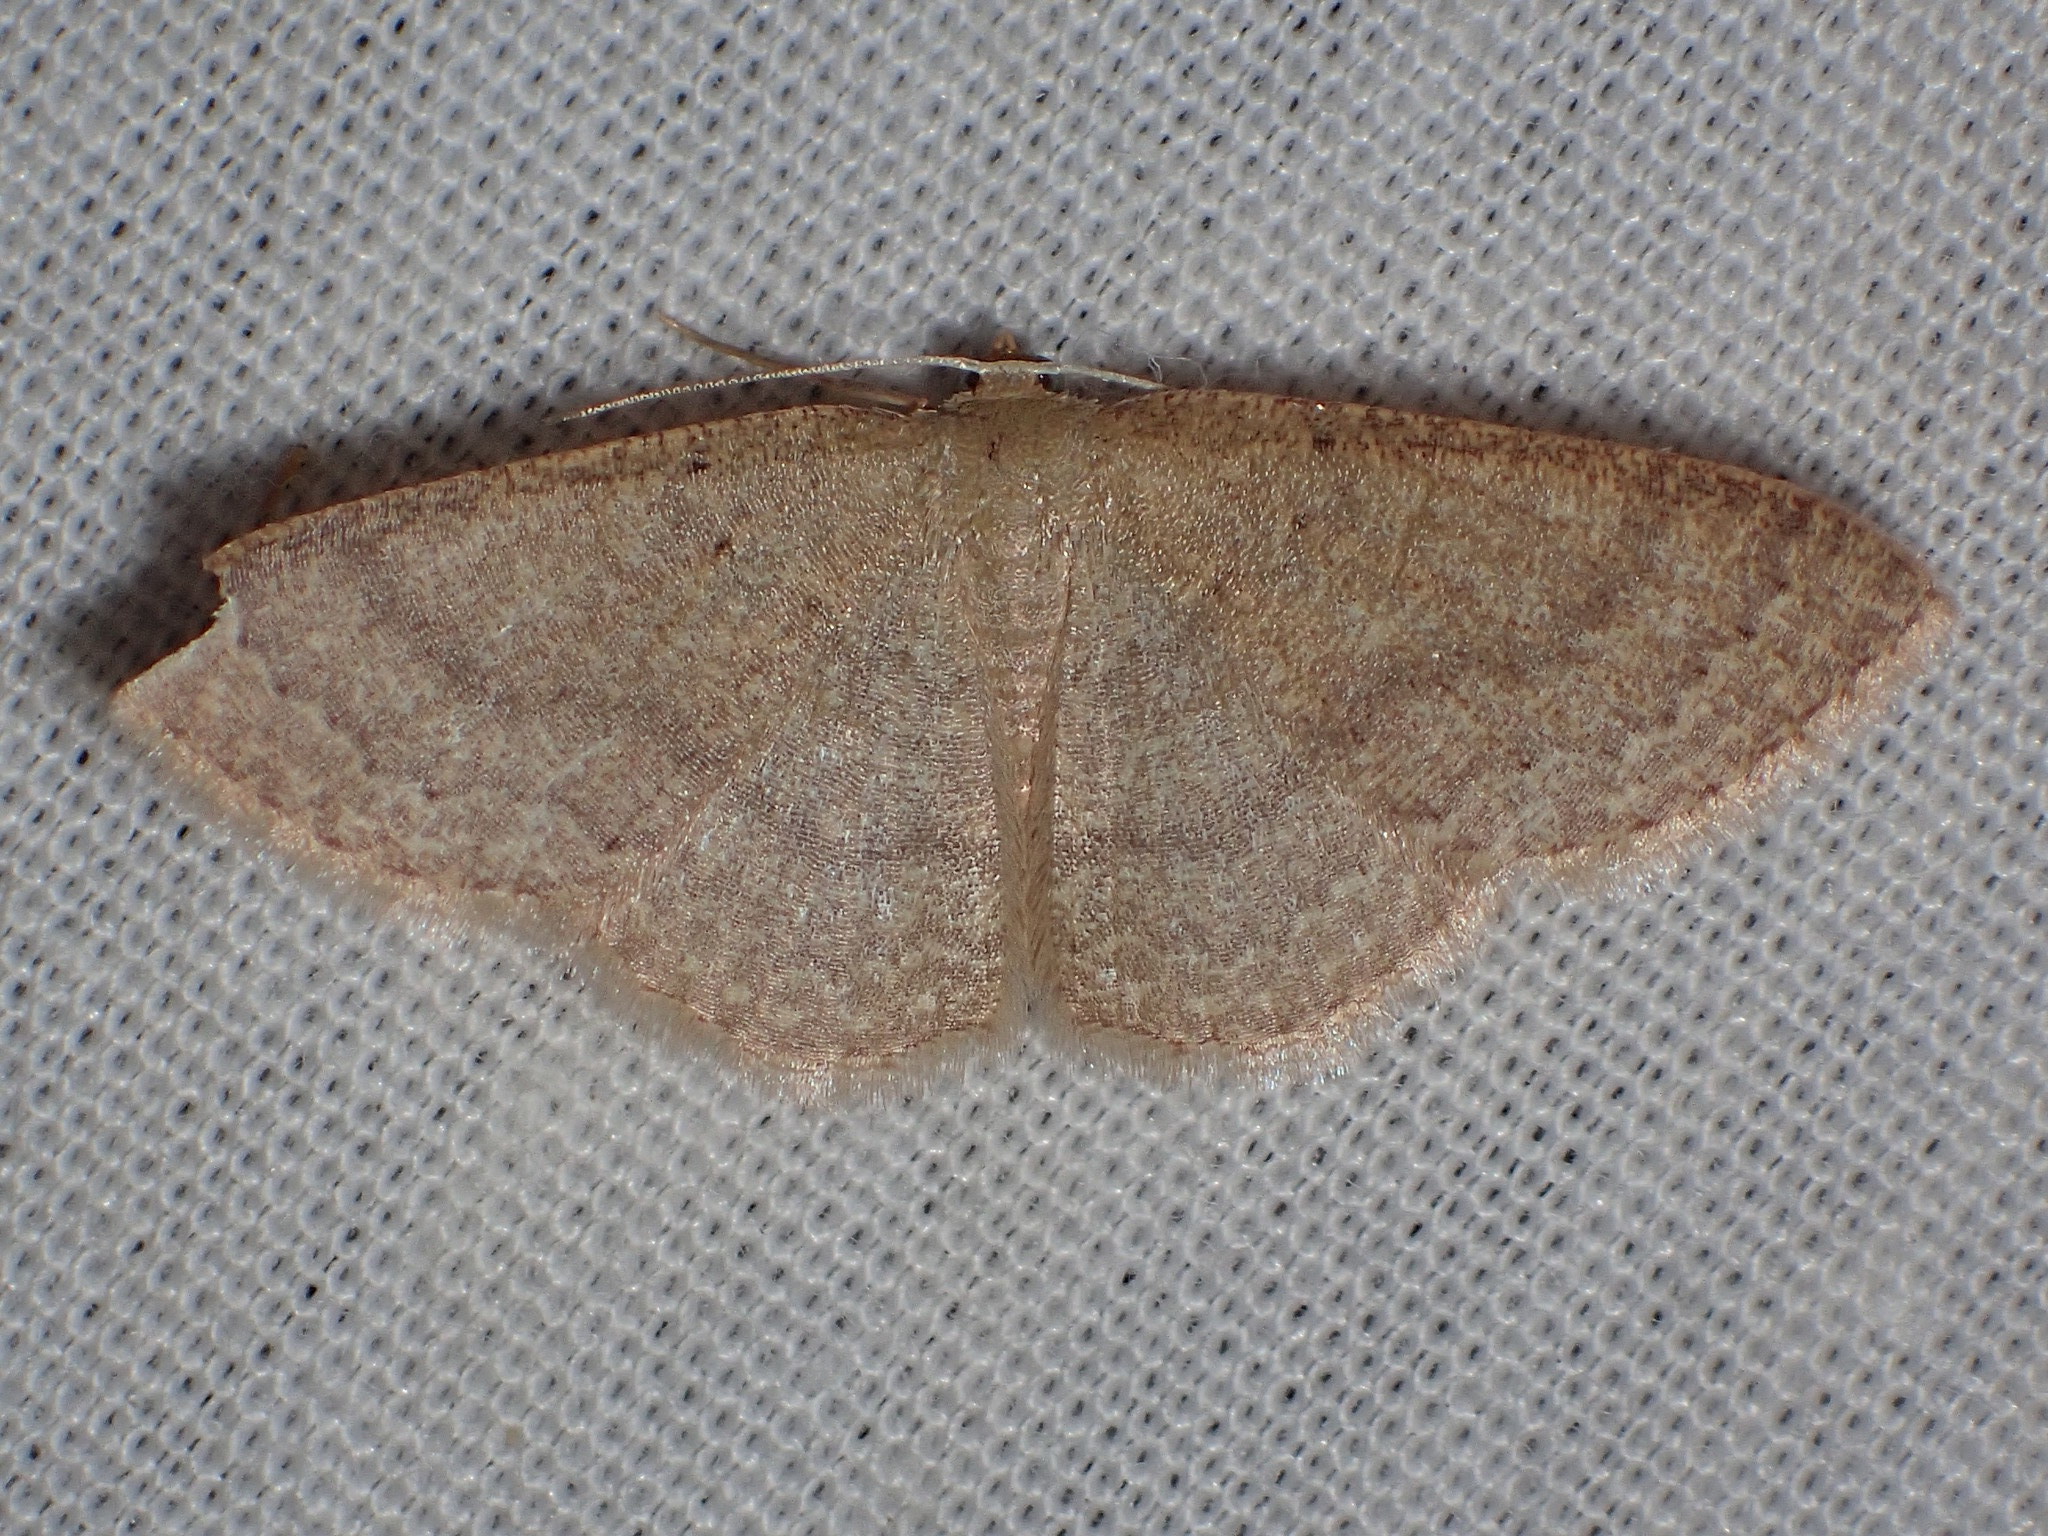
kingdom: Animalia
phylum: Arthropoda
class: Insecta
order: Lepidoptera
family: Geometridae
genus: Pleuroprucha
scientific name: Pleuroprucha insulsaria
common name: Common tan wave
